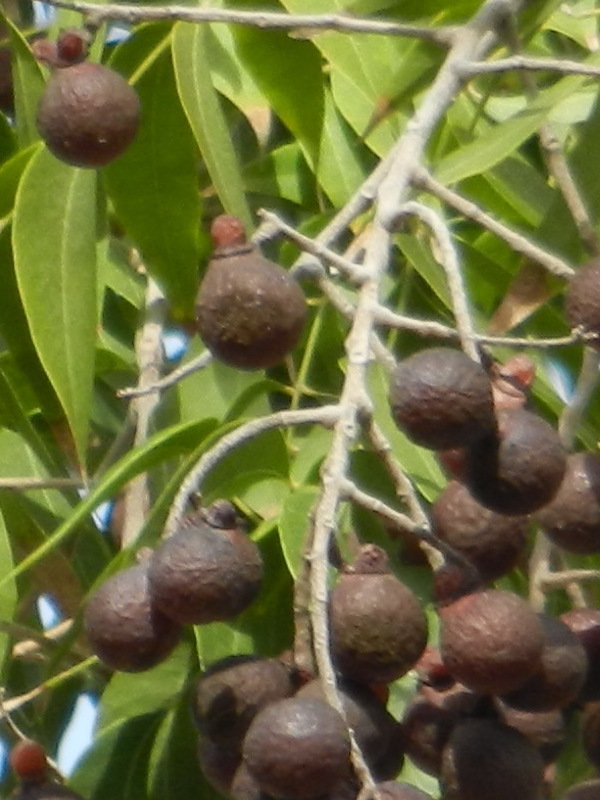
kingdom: Plantae
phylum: Tracheophyta
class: Magnoliopsida
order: Sapindales
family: Sapindaceae
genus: Sapindus
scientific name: Sapindus drummondii
